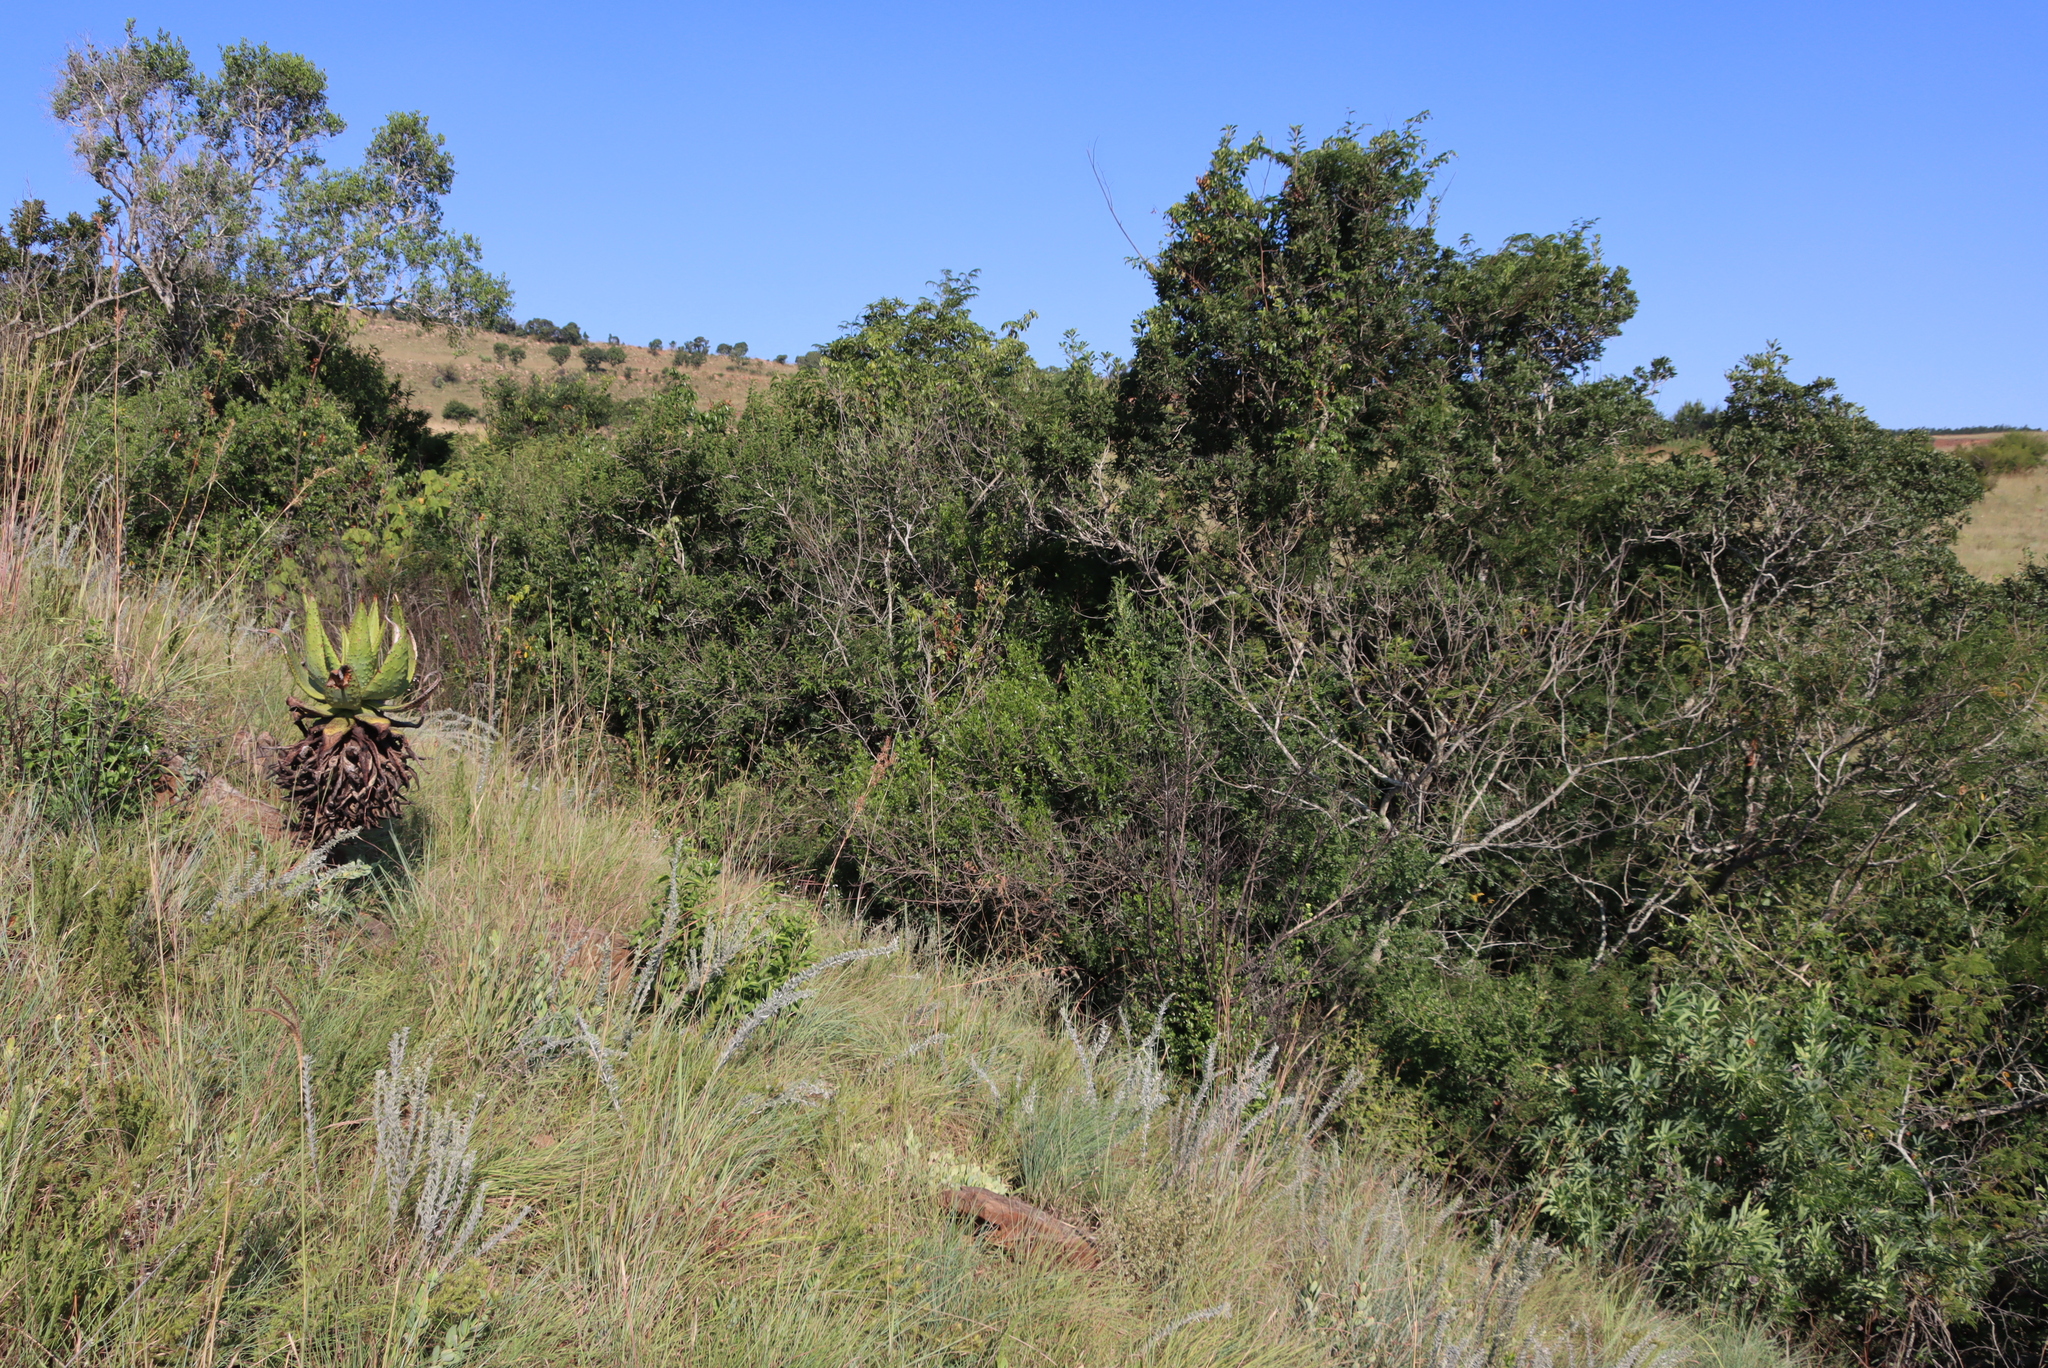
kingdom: Plantae
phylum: Tracheophyta
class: Liliopsida
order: Asparagales
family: Asphodelaceae
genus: Aloe
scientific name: Aloe marlothii
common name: Flat-flowered aloe
